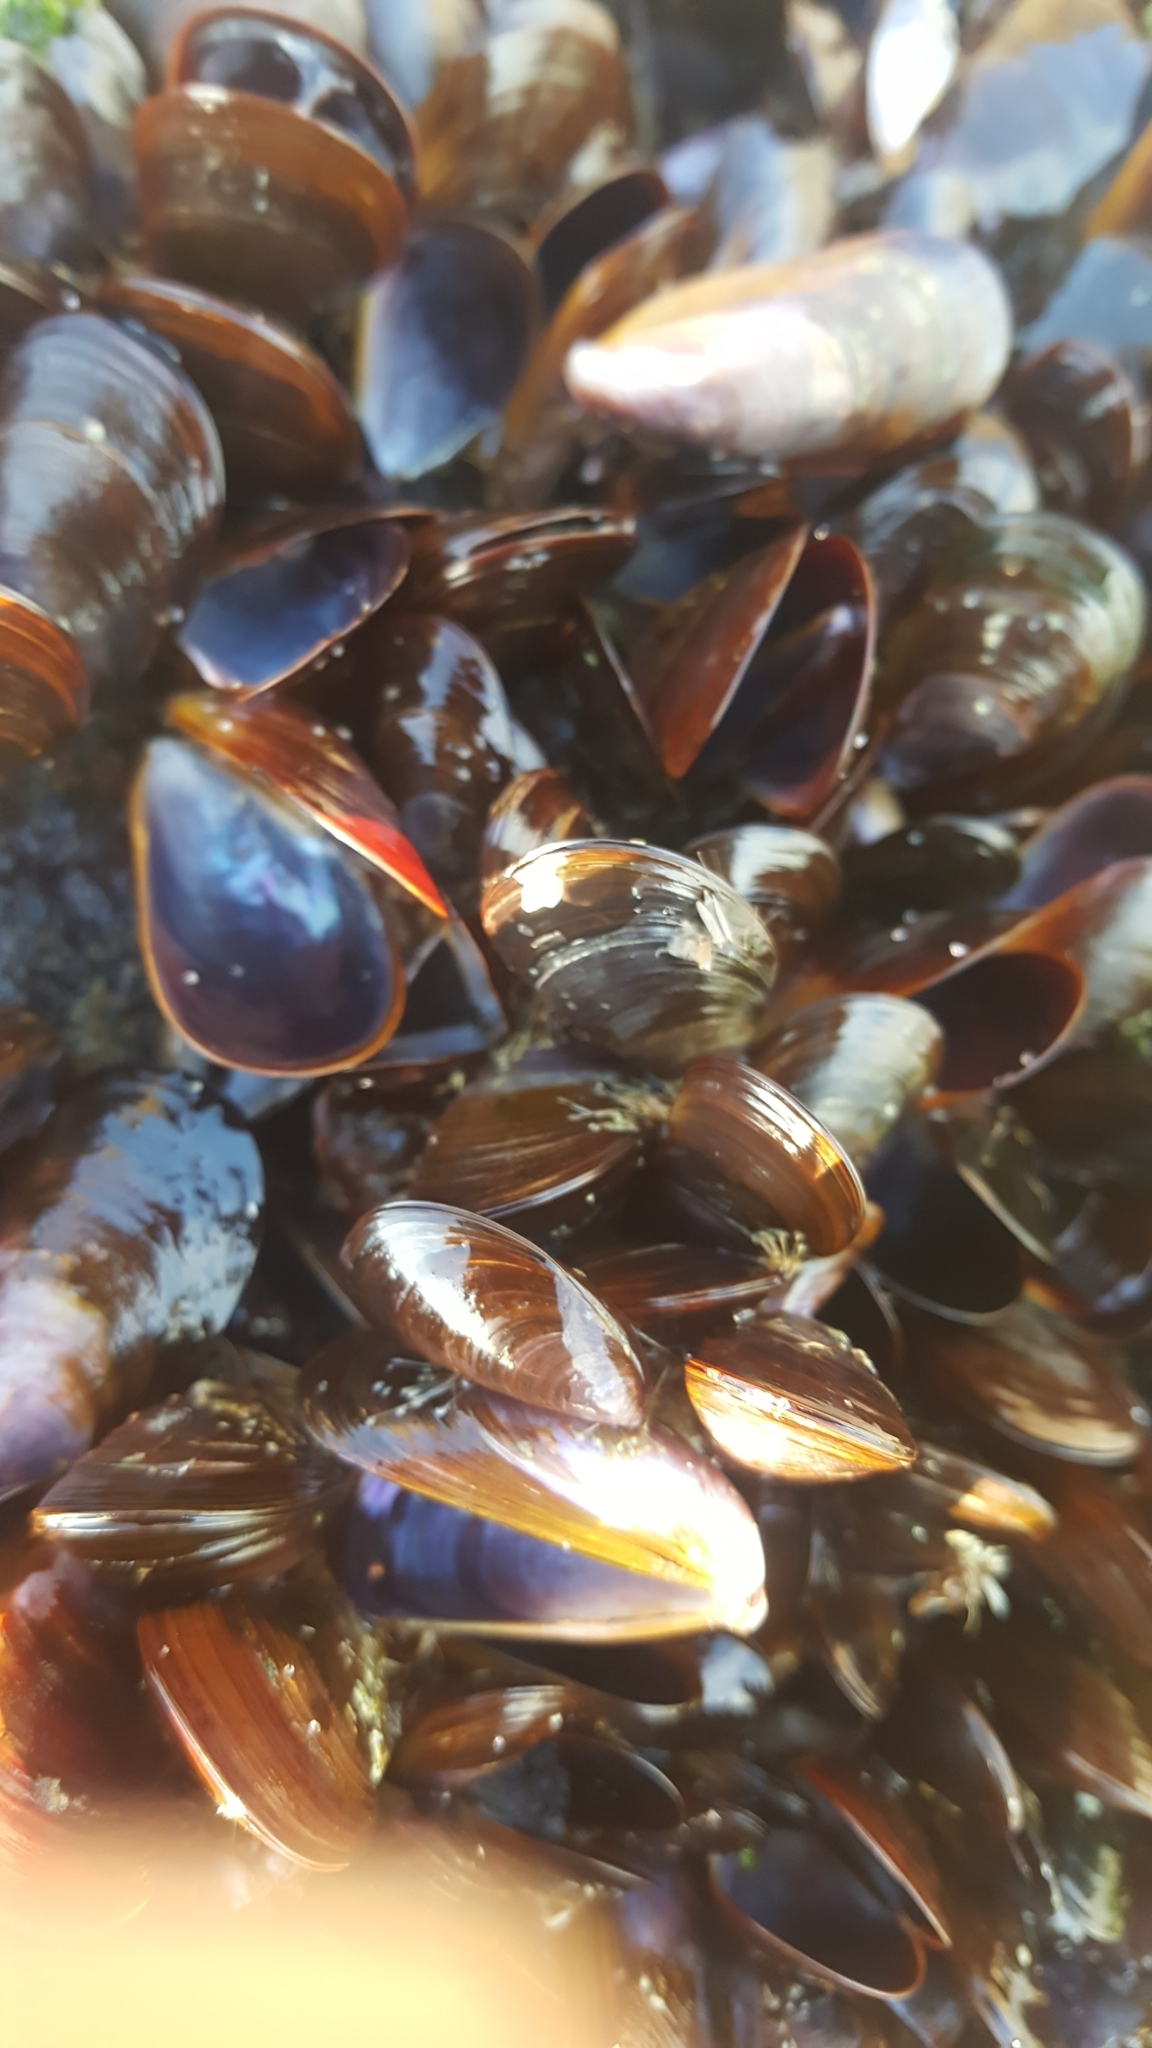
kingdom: Animalia
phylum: Mollusca
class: Bivalvia
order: Mytilida
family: Mytilidae
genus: Perna
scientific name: Perna perna
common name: Mexilhao mussel
